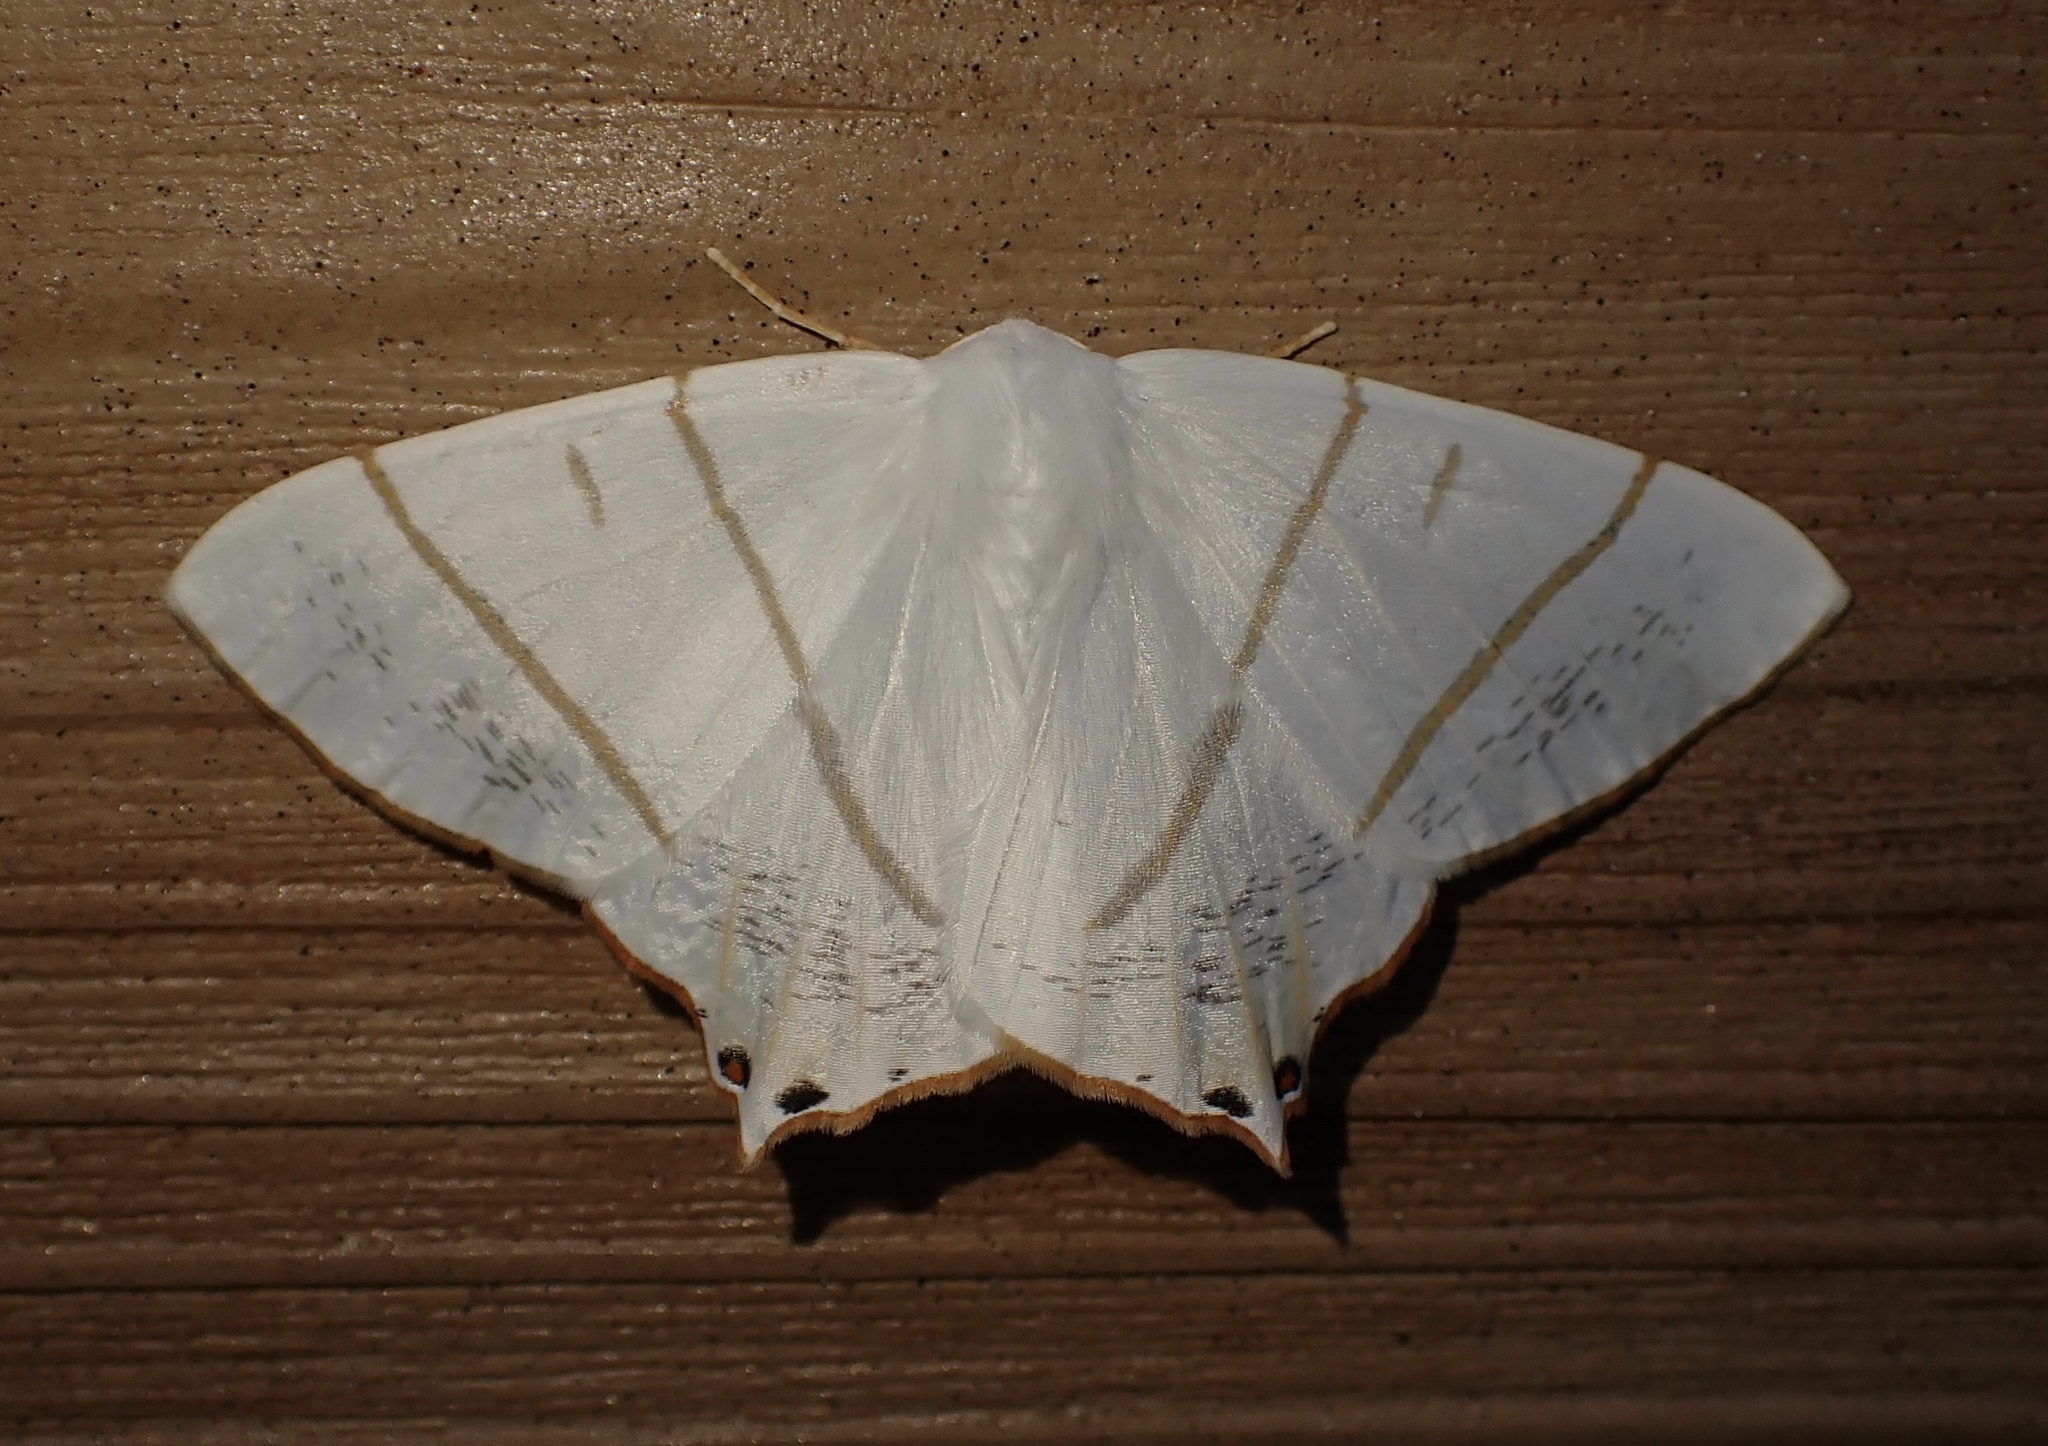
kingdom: Animalia
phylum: Arthropoda
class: Insecta
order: Lepidoptera
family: Geometridae
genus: Ourapteryx
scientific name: Ourapteryx maculicaudaria
